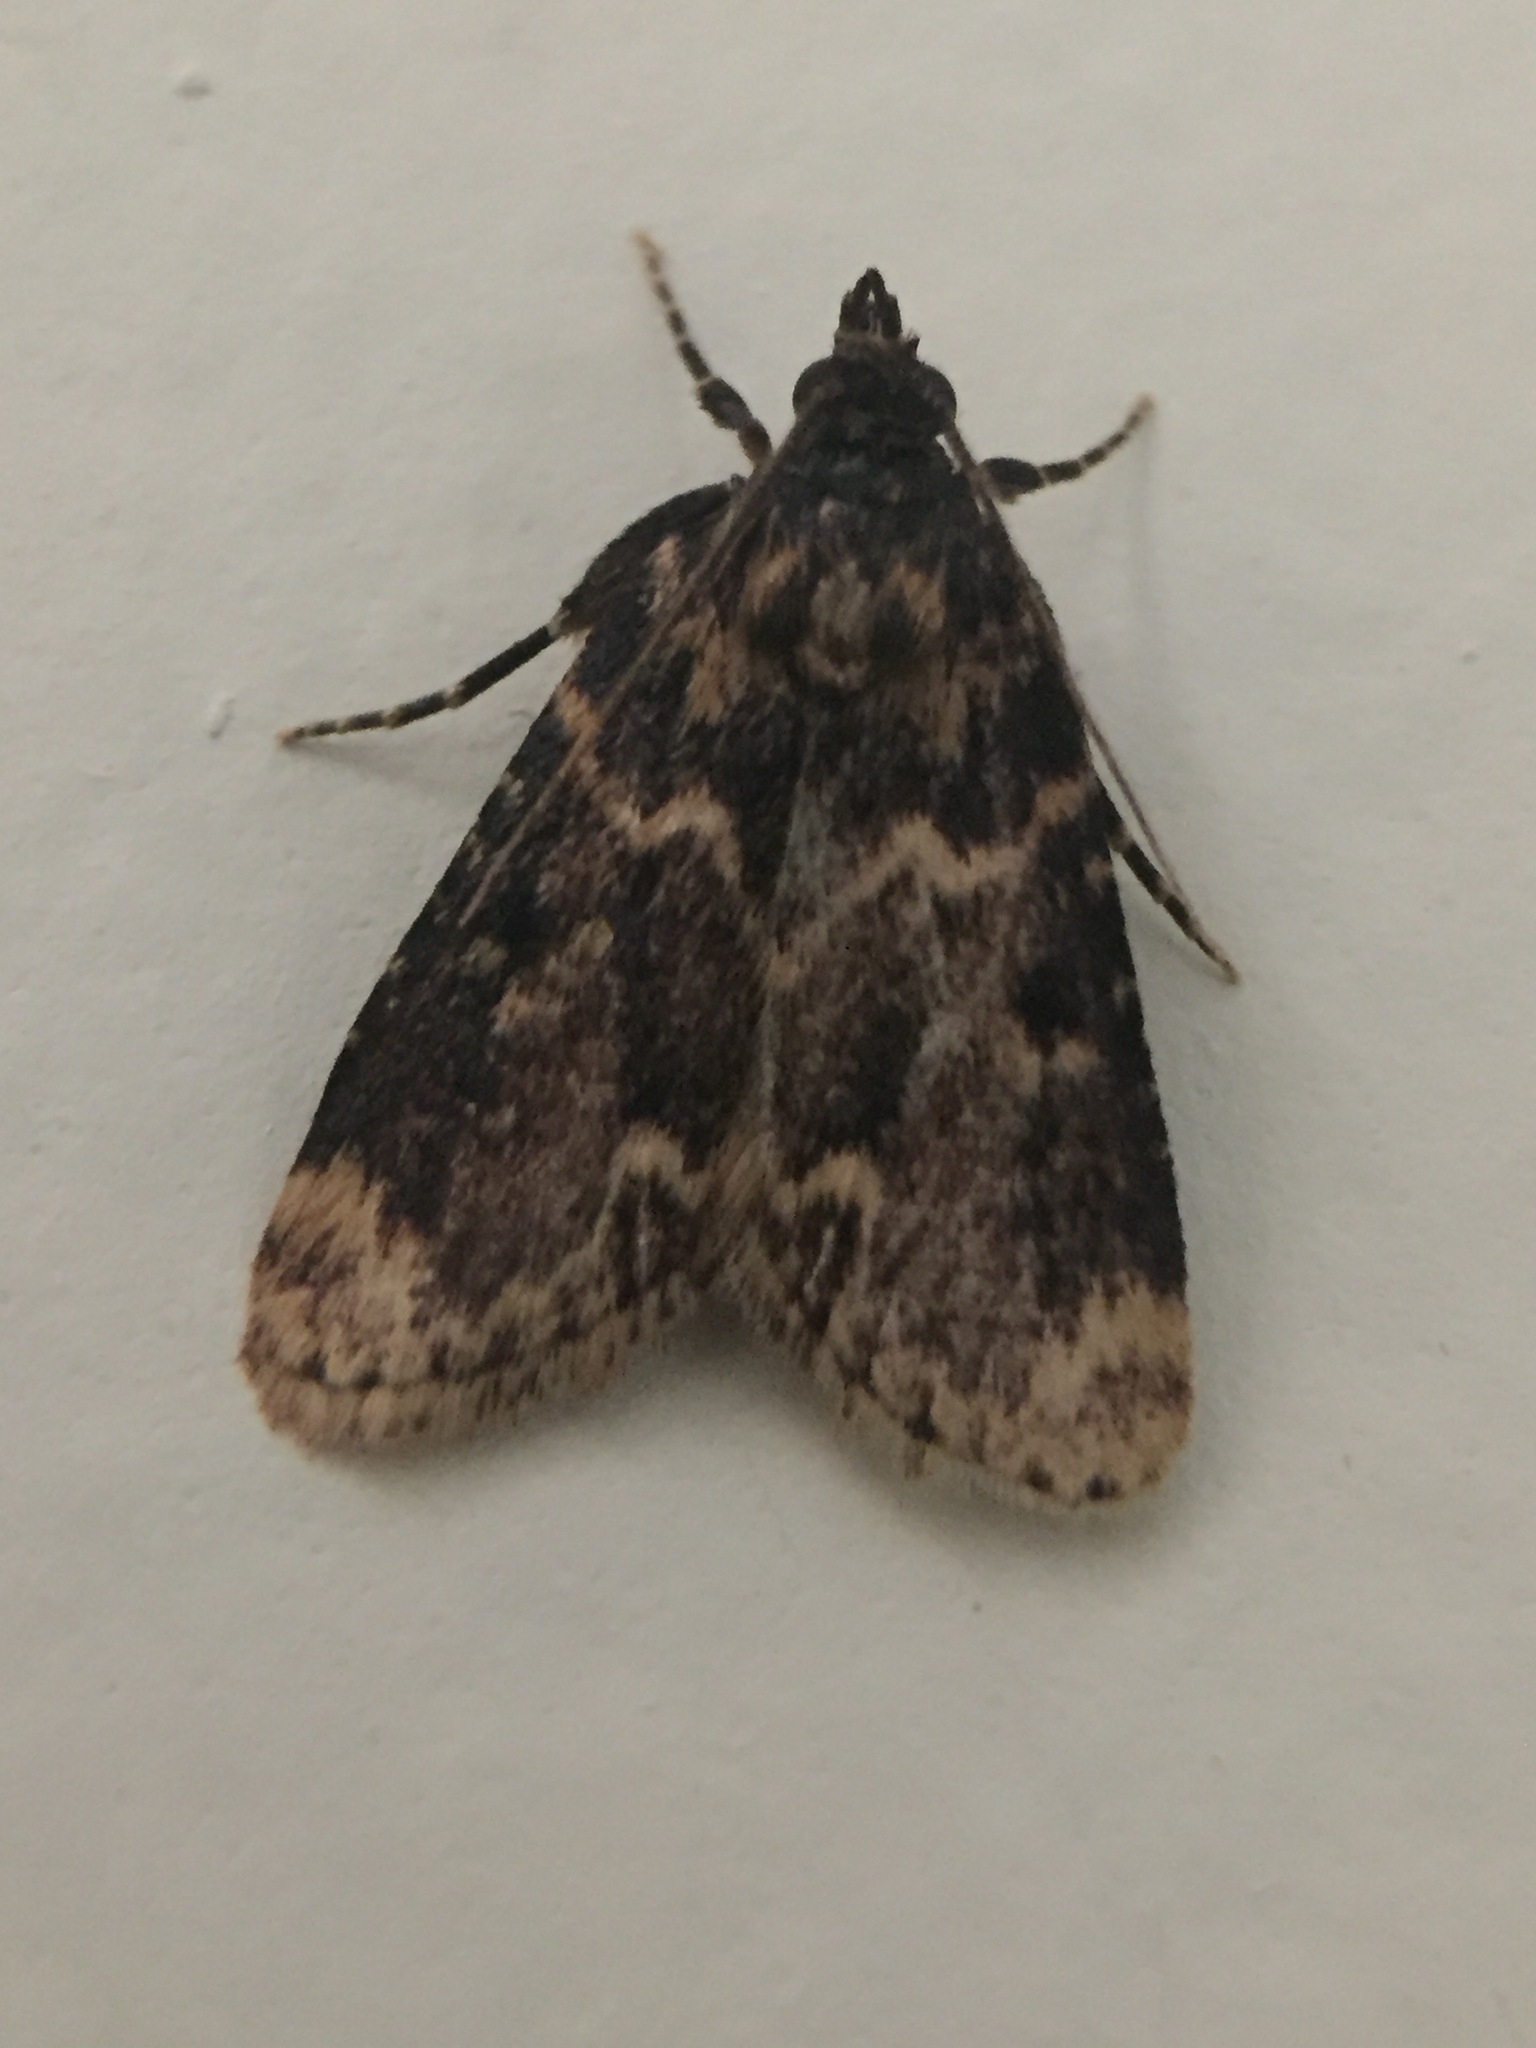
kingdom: Animalia
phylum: Arthropoda
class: Insecta
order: Lepidoptera
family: Pyralidae
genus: Aglossa
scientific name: Aglossa caprealis
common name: Small tabby
